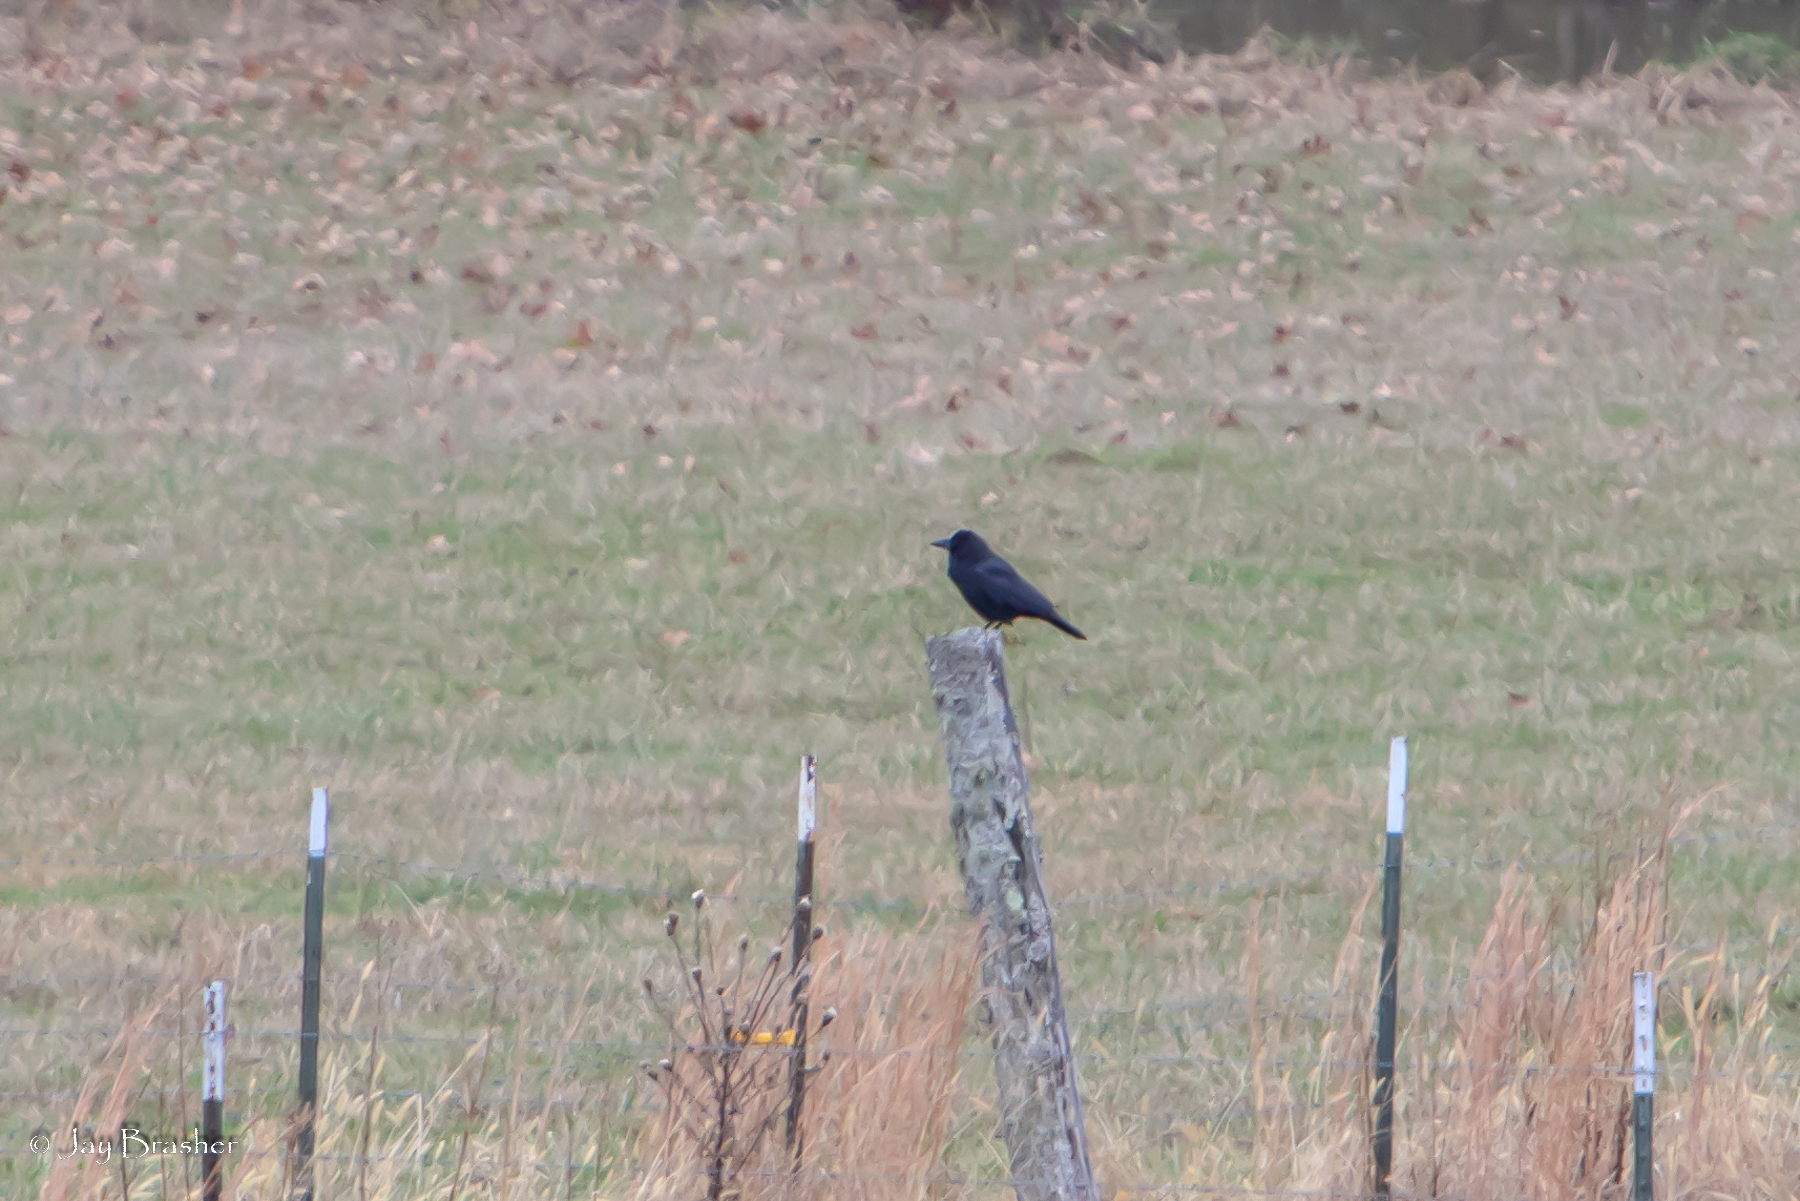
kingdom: Animalia
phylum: Chordata
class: Aves
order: Passeriformes
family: Corvidae
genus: Corvus
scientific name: Corvus brachyrhynchos
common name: American crow
